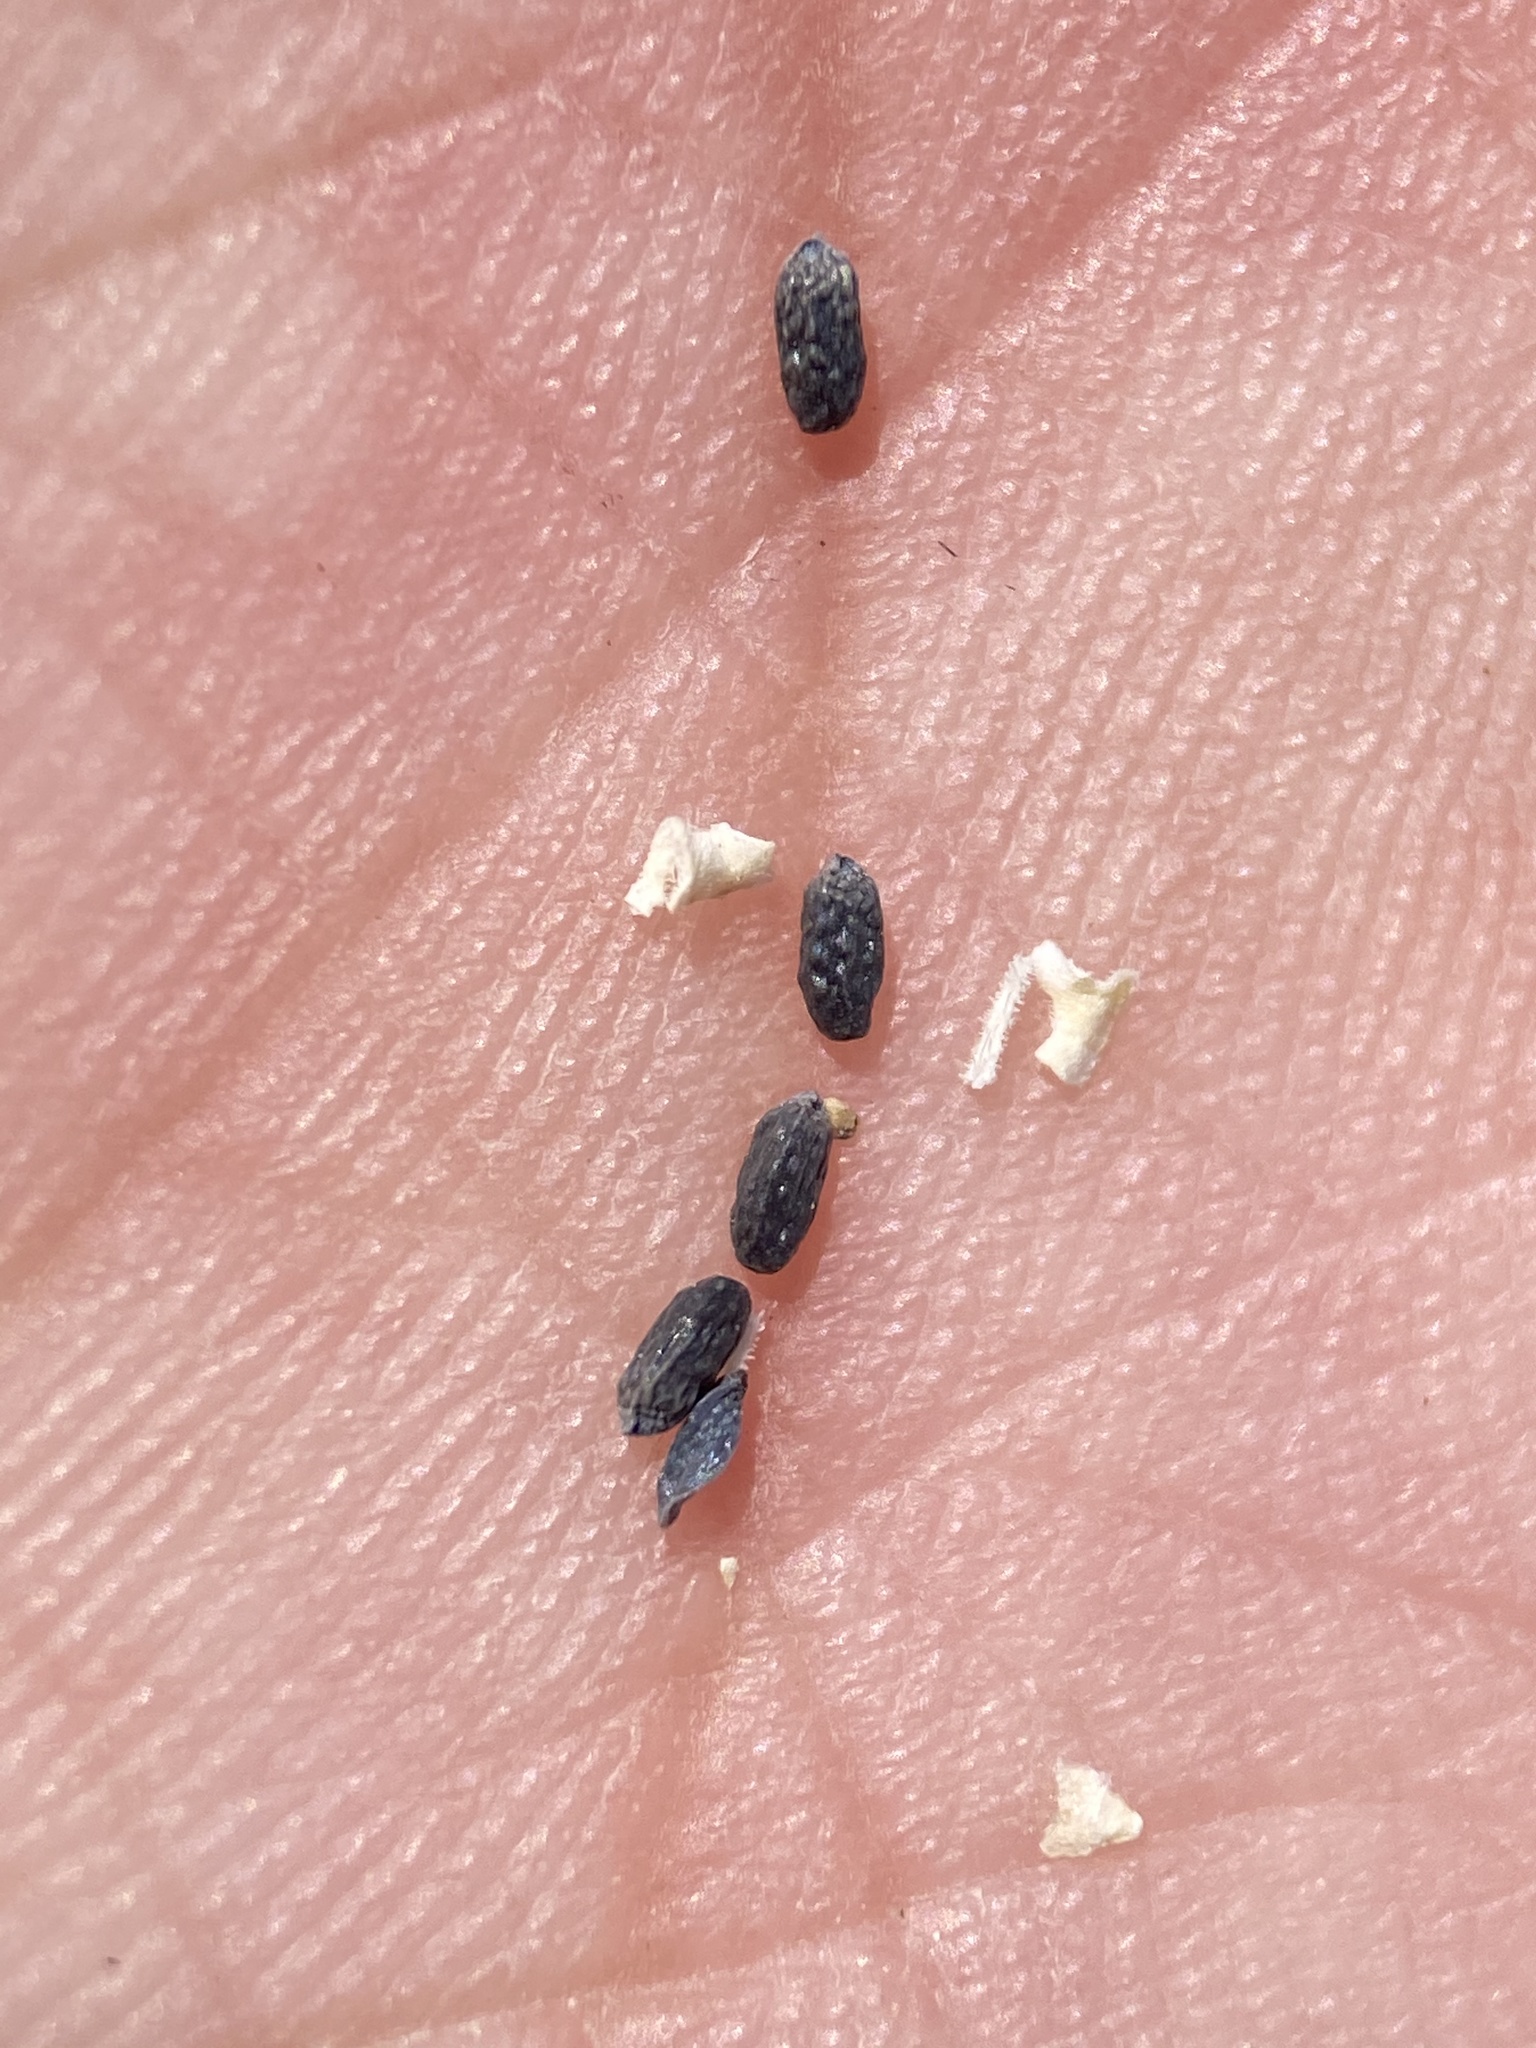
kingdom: Plantae
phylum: Tracheophyta
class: Magnoliopsida
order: Cornales
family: Loasaceae
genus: Mentzelia
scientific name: Mentzelia torreyi
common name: Torrey's blazingstar
